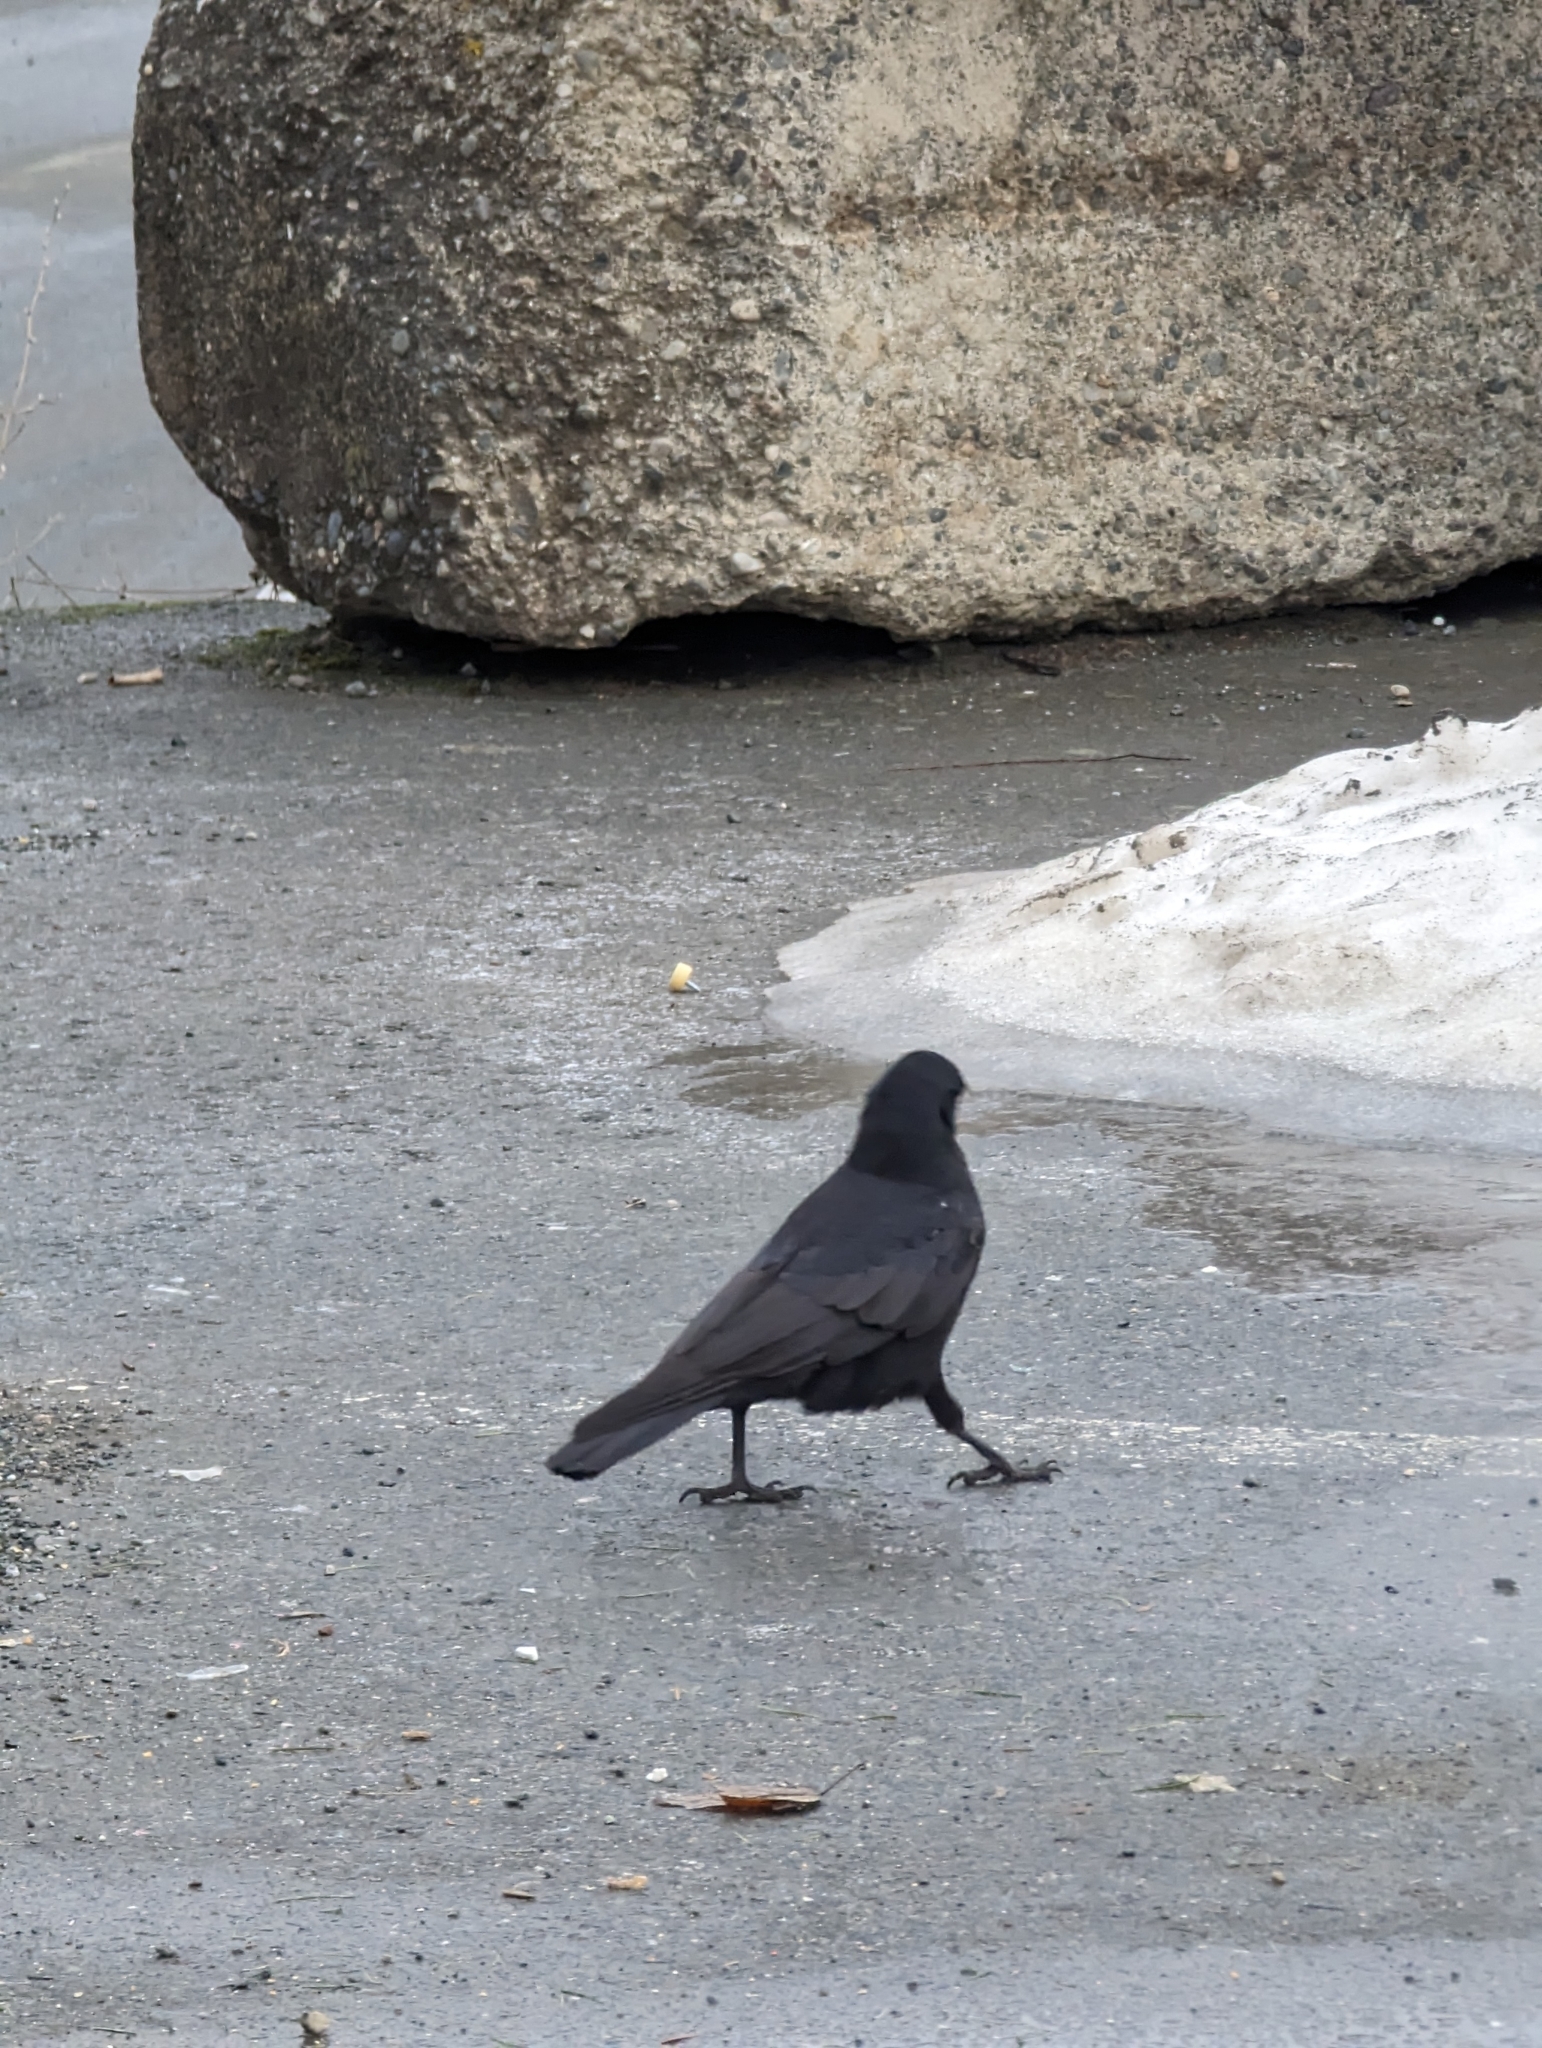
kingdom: Animalia
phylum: Chordata
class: Aves
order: Passeriformes
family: Corvidae
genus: Corvus
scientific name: Corvus brachyrhynchos
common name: American crow
